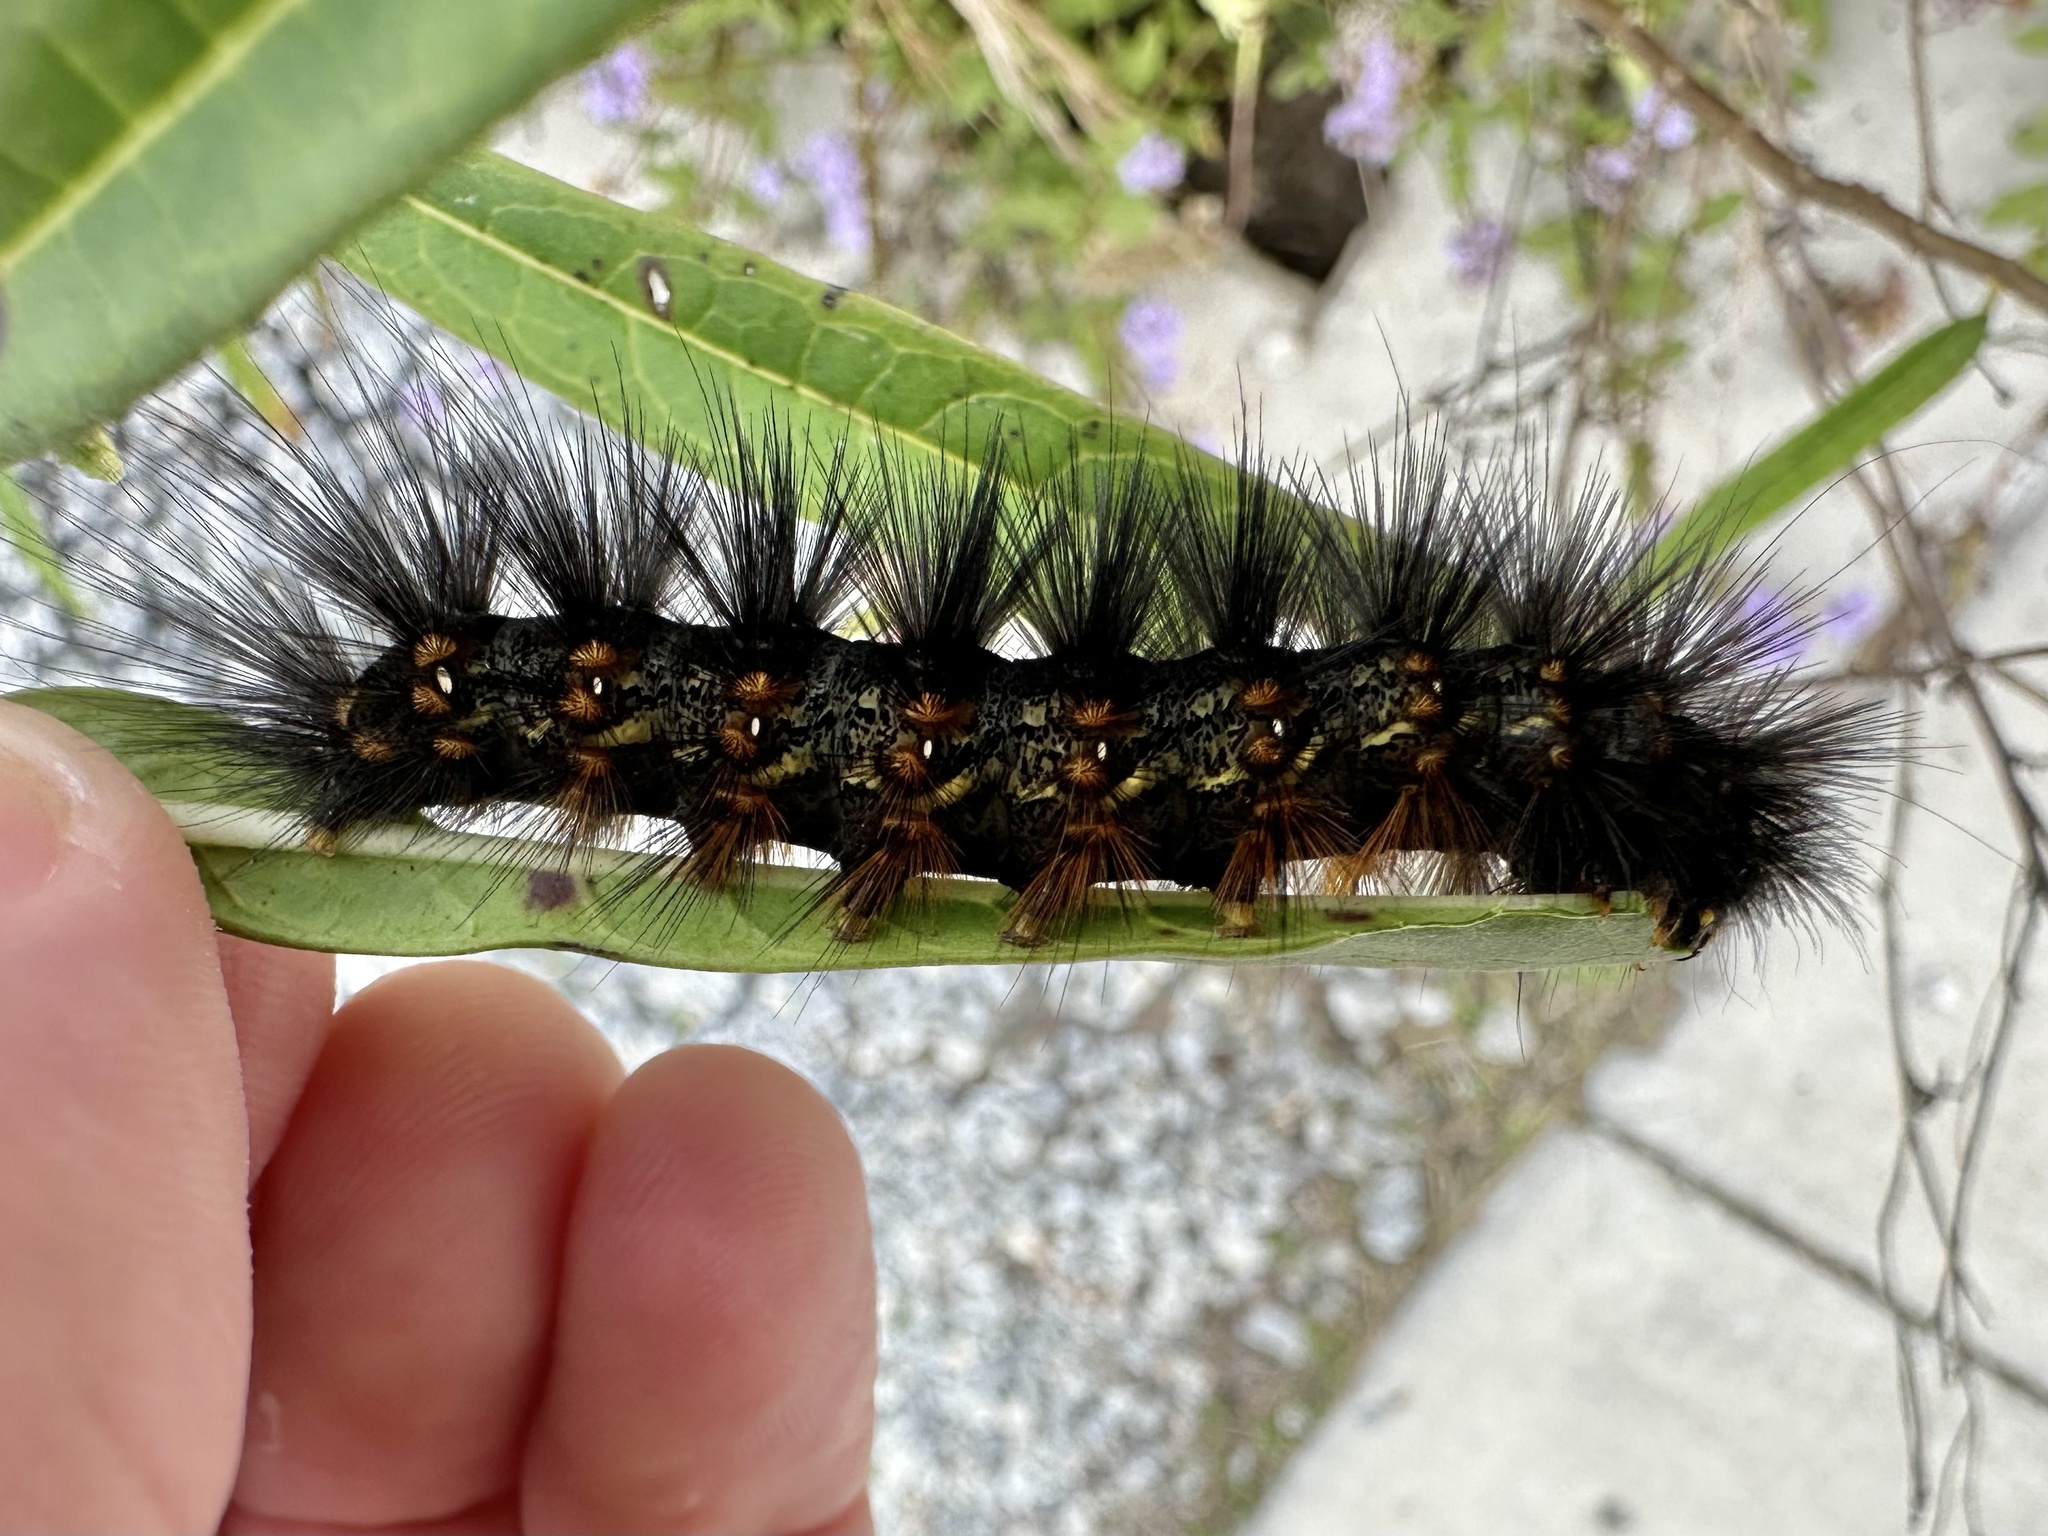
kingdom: Animalia
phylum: Arthropoda
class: Insecta
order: Lepidoptera
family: Erebidae
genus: Estigmene
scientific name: Estigmene acrea
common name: Salt marsh moth
